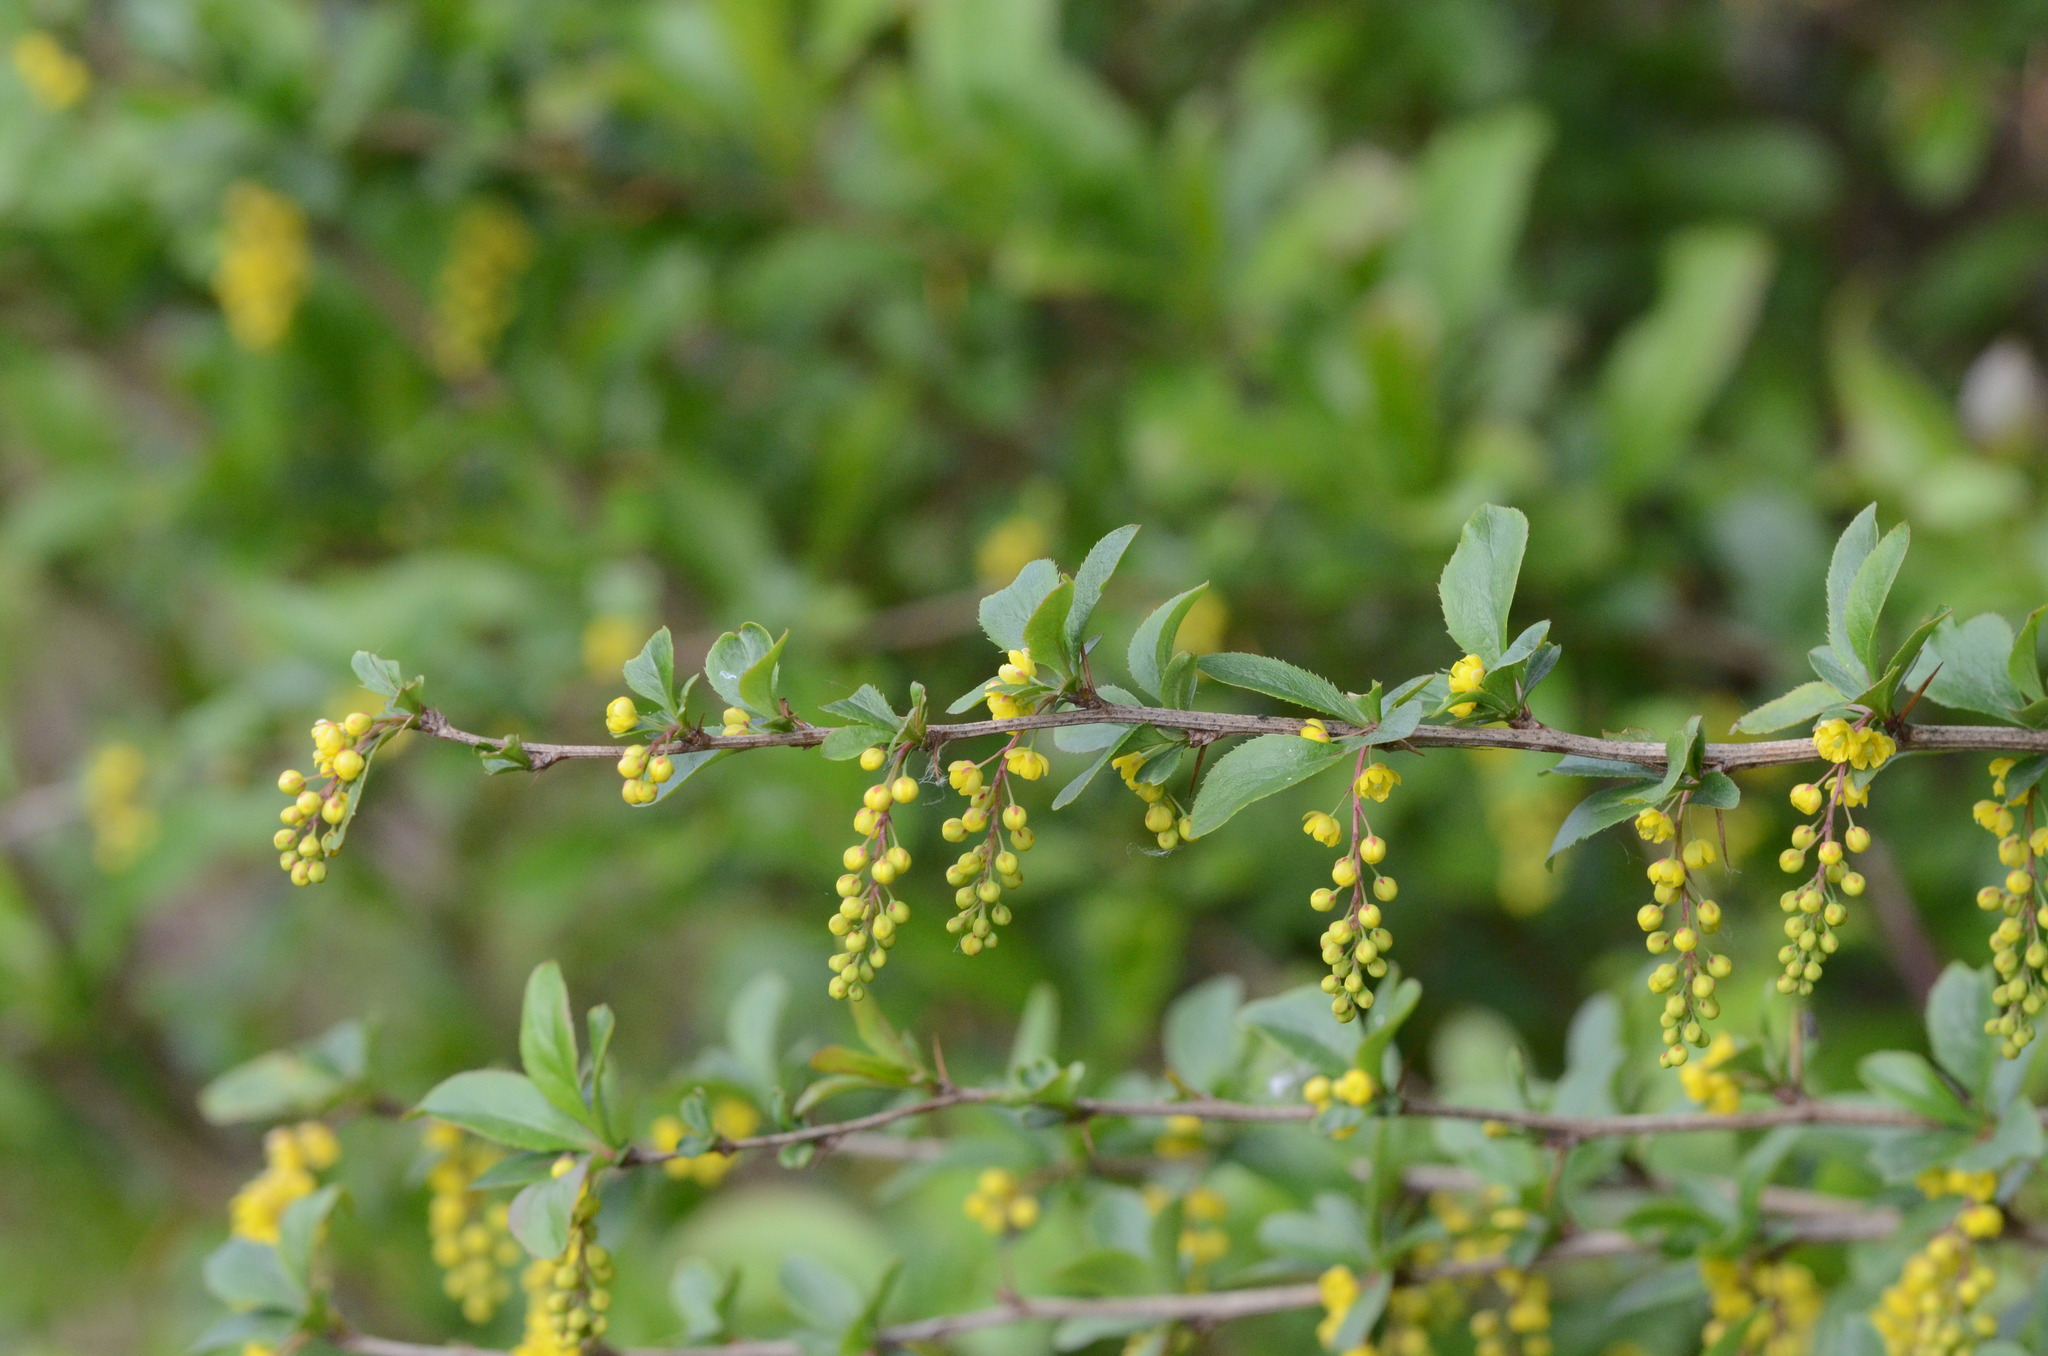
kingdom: Plantae
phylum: Tracheophyta
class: Magnoliopsida
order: Ranunculales
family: Berberidaceae
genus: Berberis
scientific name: Berberis vulgaris
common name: Barberry
